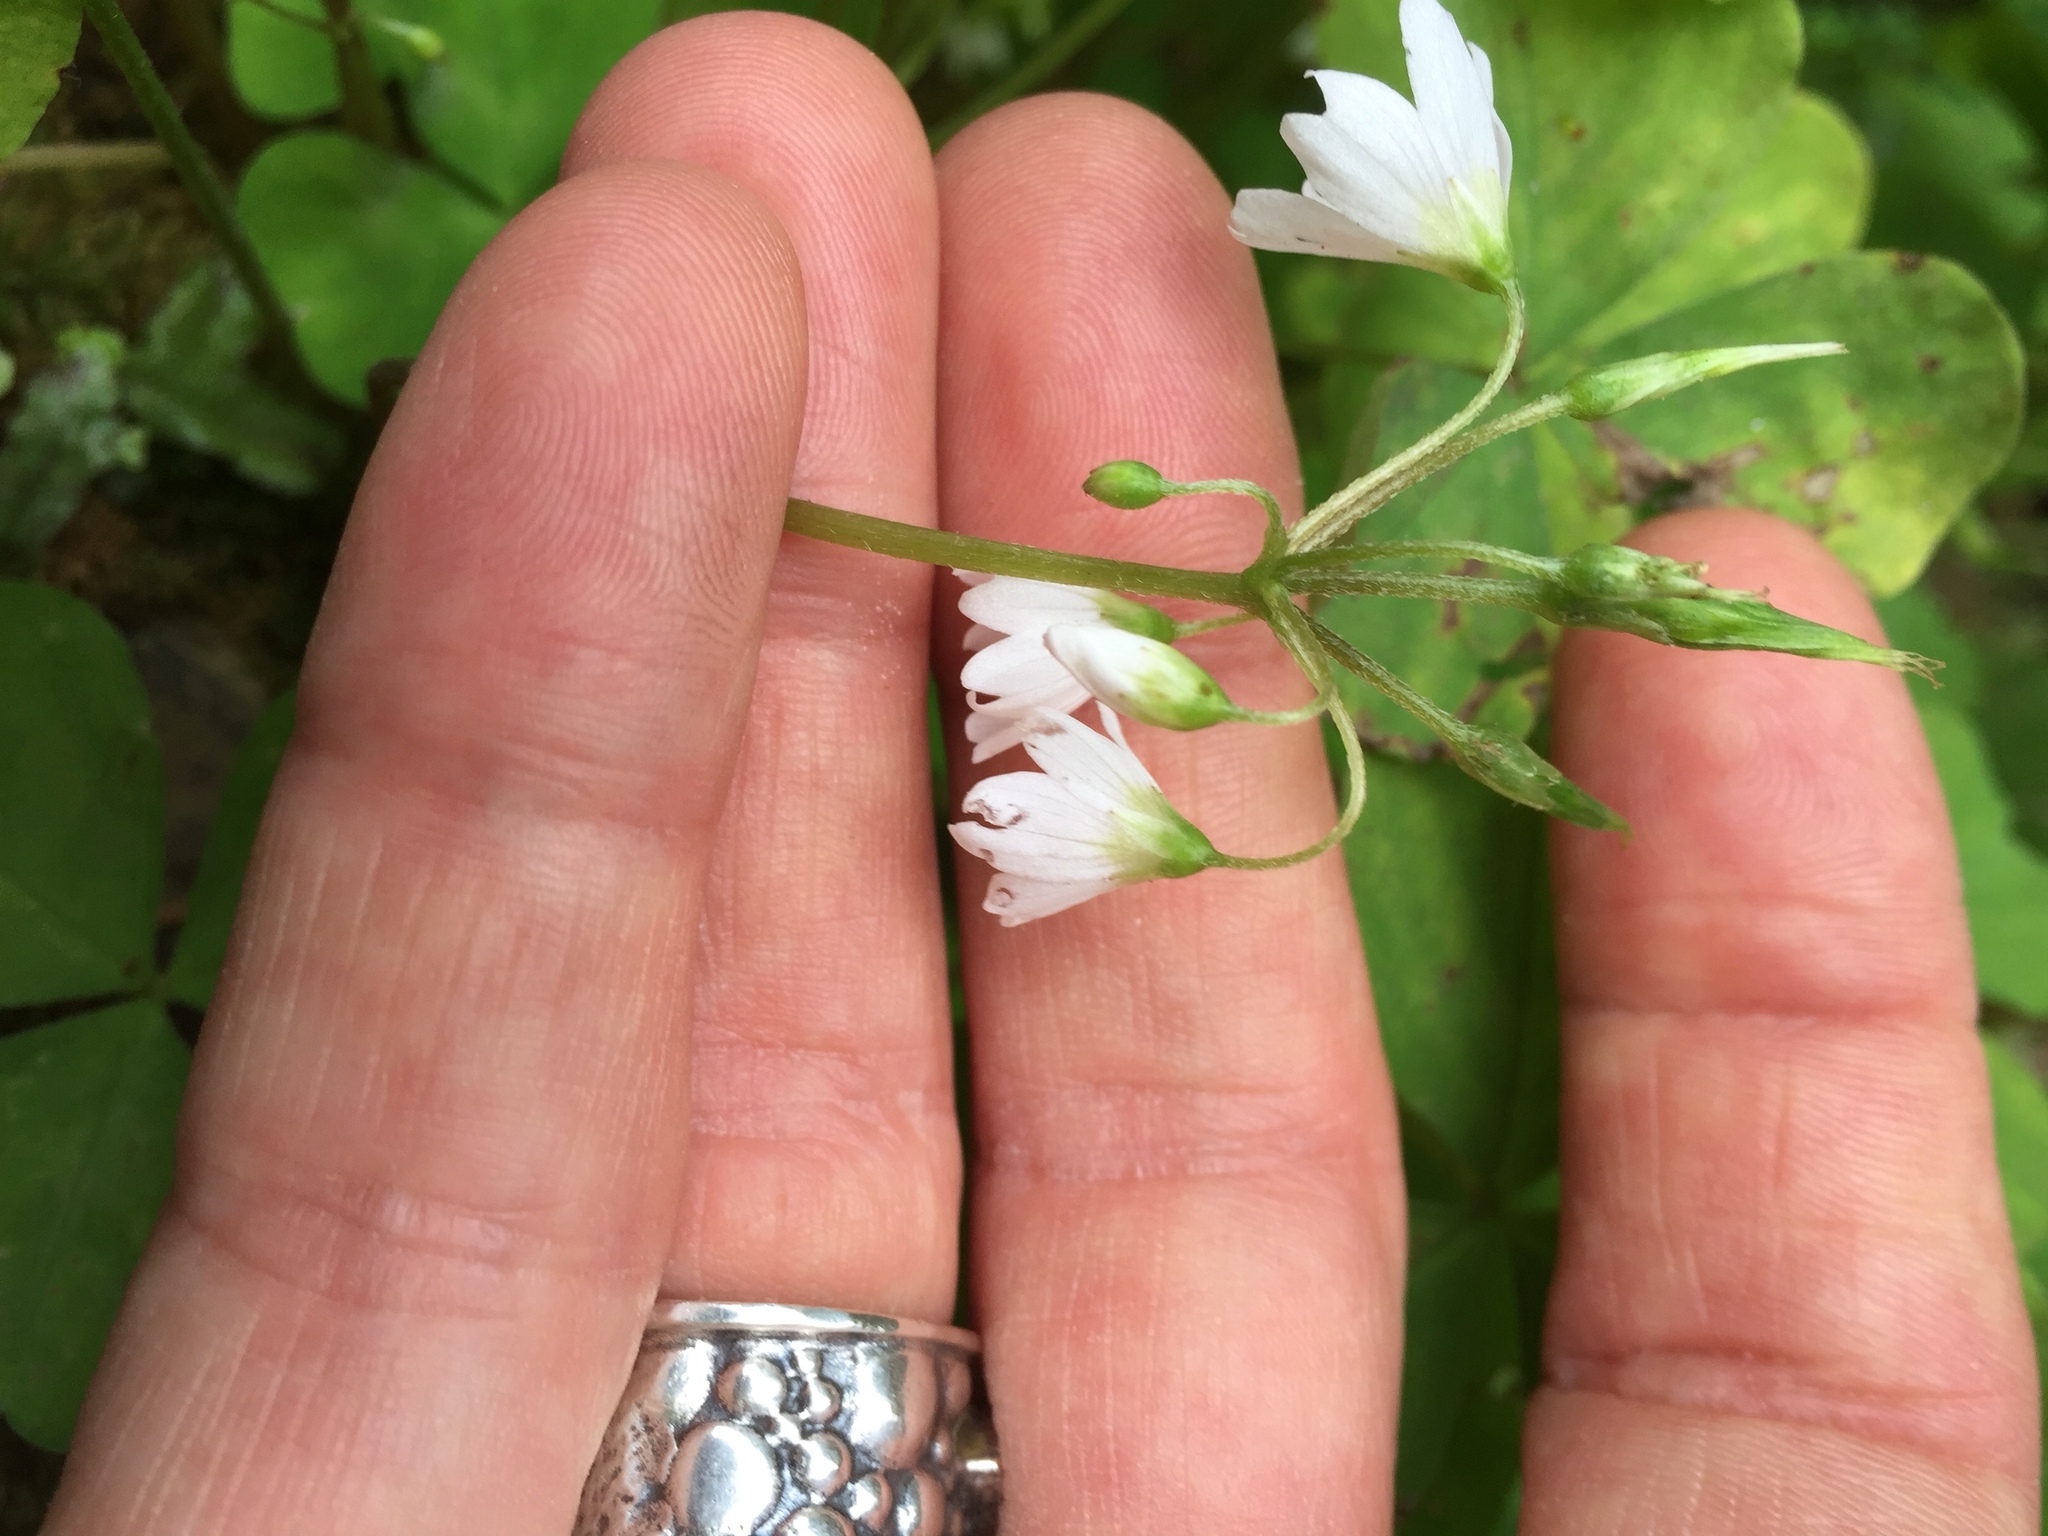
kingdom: Plantae
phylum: Tracheophyta
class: Magnoliopsida
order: Oxalidales
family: Oxalidaceae
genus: Oxalis
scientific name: Oxalis trilliifolia
